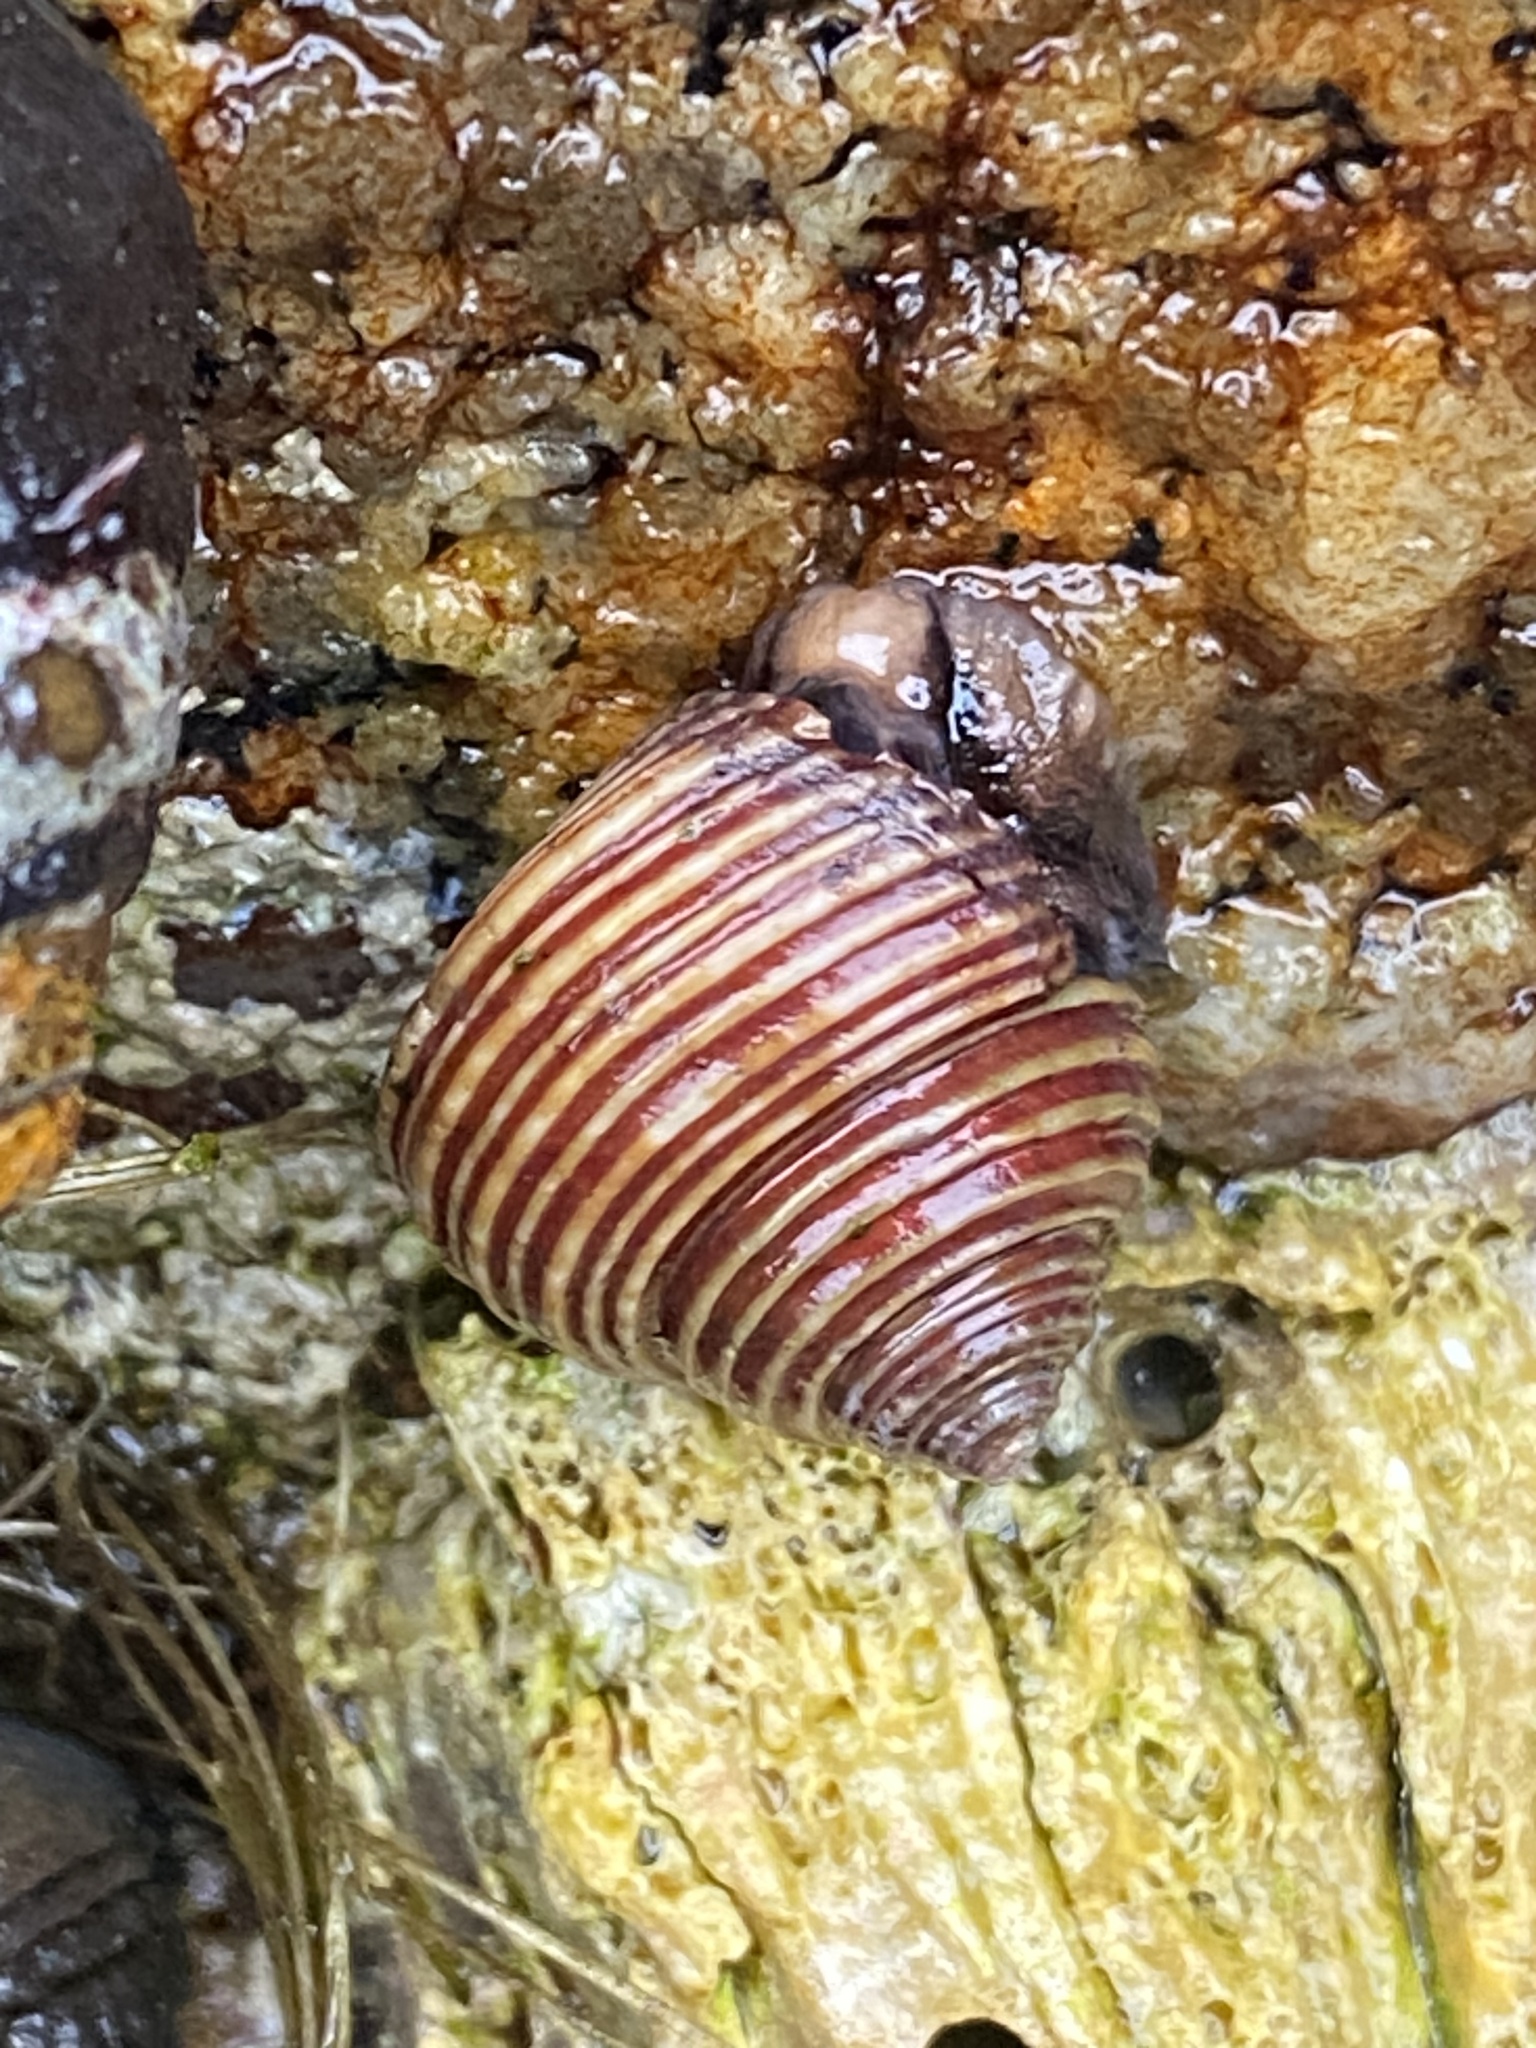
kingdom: Animalia
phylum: Mollusca
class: Gastropoda
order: Trochida
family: Calliostomatidae
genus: Calliostoma
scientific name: Calliostoma canaliculatum
